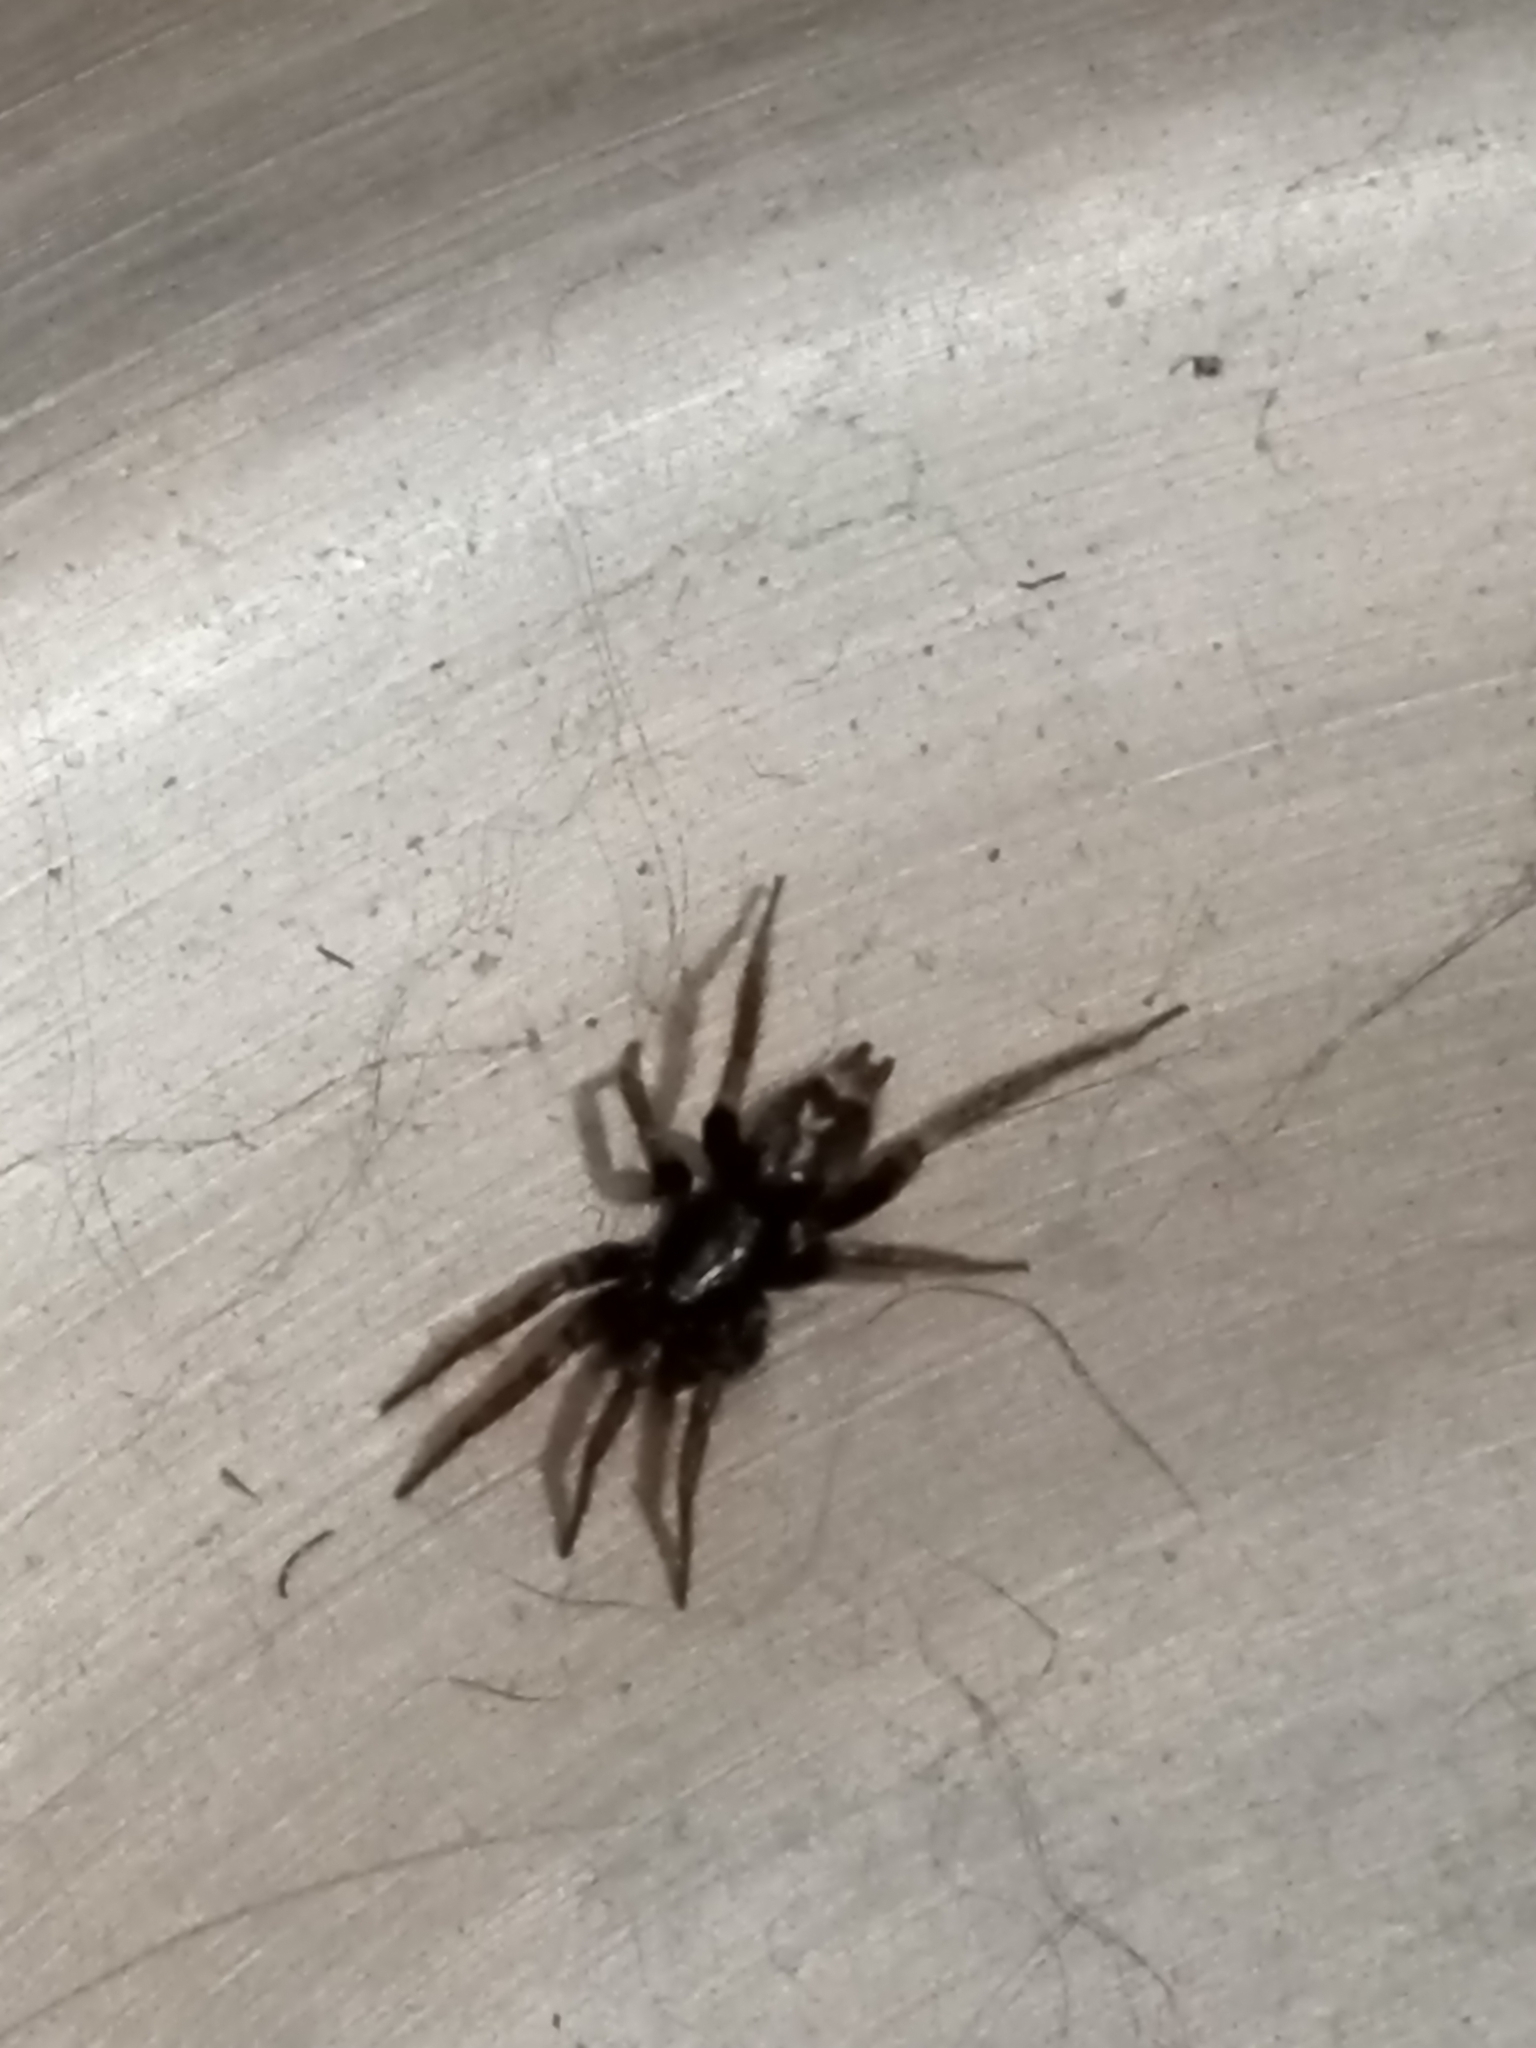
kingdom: Animalia
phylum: Arthropoda
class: Arachnida
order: Araneae
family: Gnaphosidae
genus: Herpyllus
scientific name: Herpyllus ecclesiasticus
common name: Eastern parson spider
